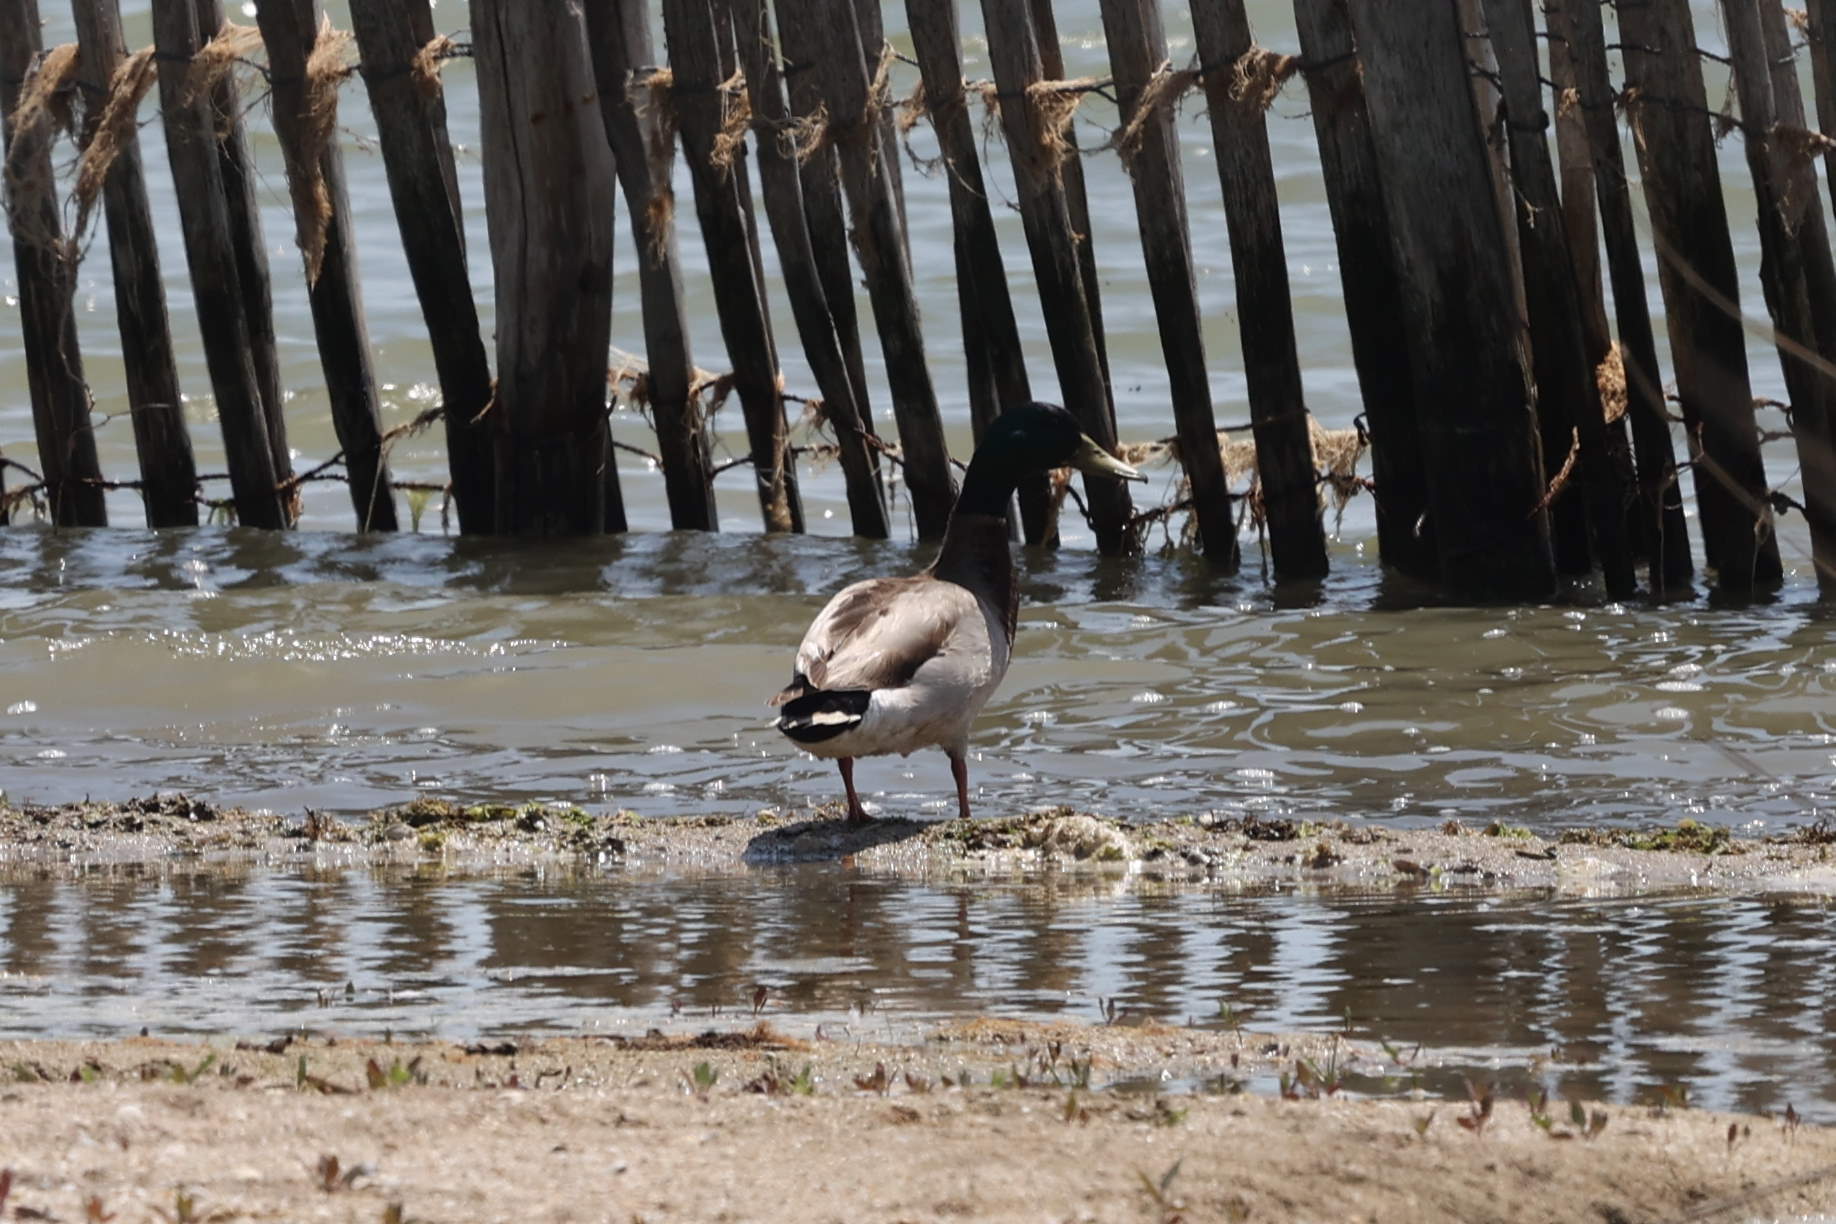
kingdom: Animalia
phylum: Chordata
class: Aves
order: Anseriformes
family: Anatidae
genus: Anas
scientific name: Anas platyrhynchos
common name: Mallard
